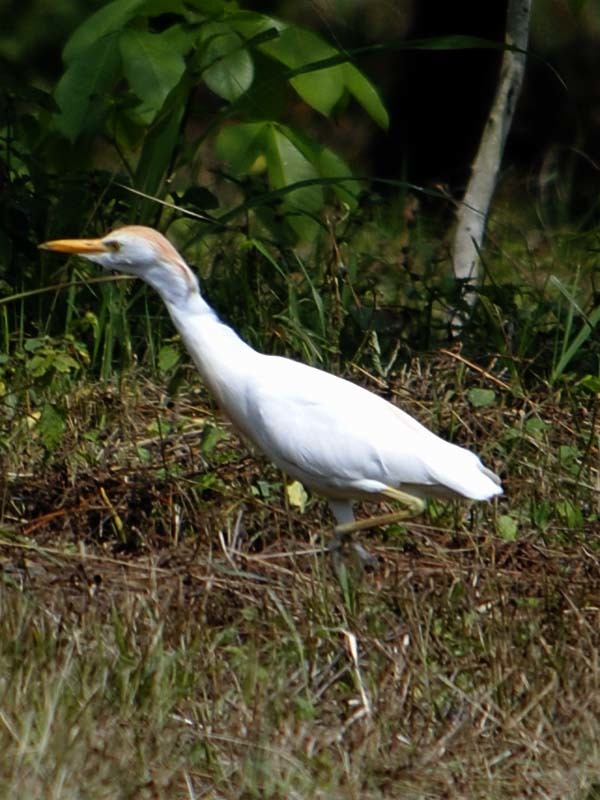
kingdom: Animalia
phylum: Chordata
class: Aves
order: Pelecaniformes
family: Ardeidae
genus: Bubulcus
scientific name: Bubulcus ibis
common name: Cattle egret
